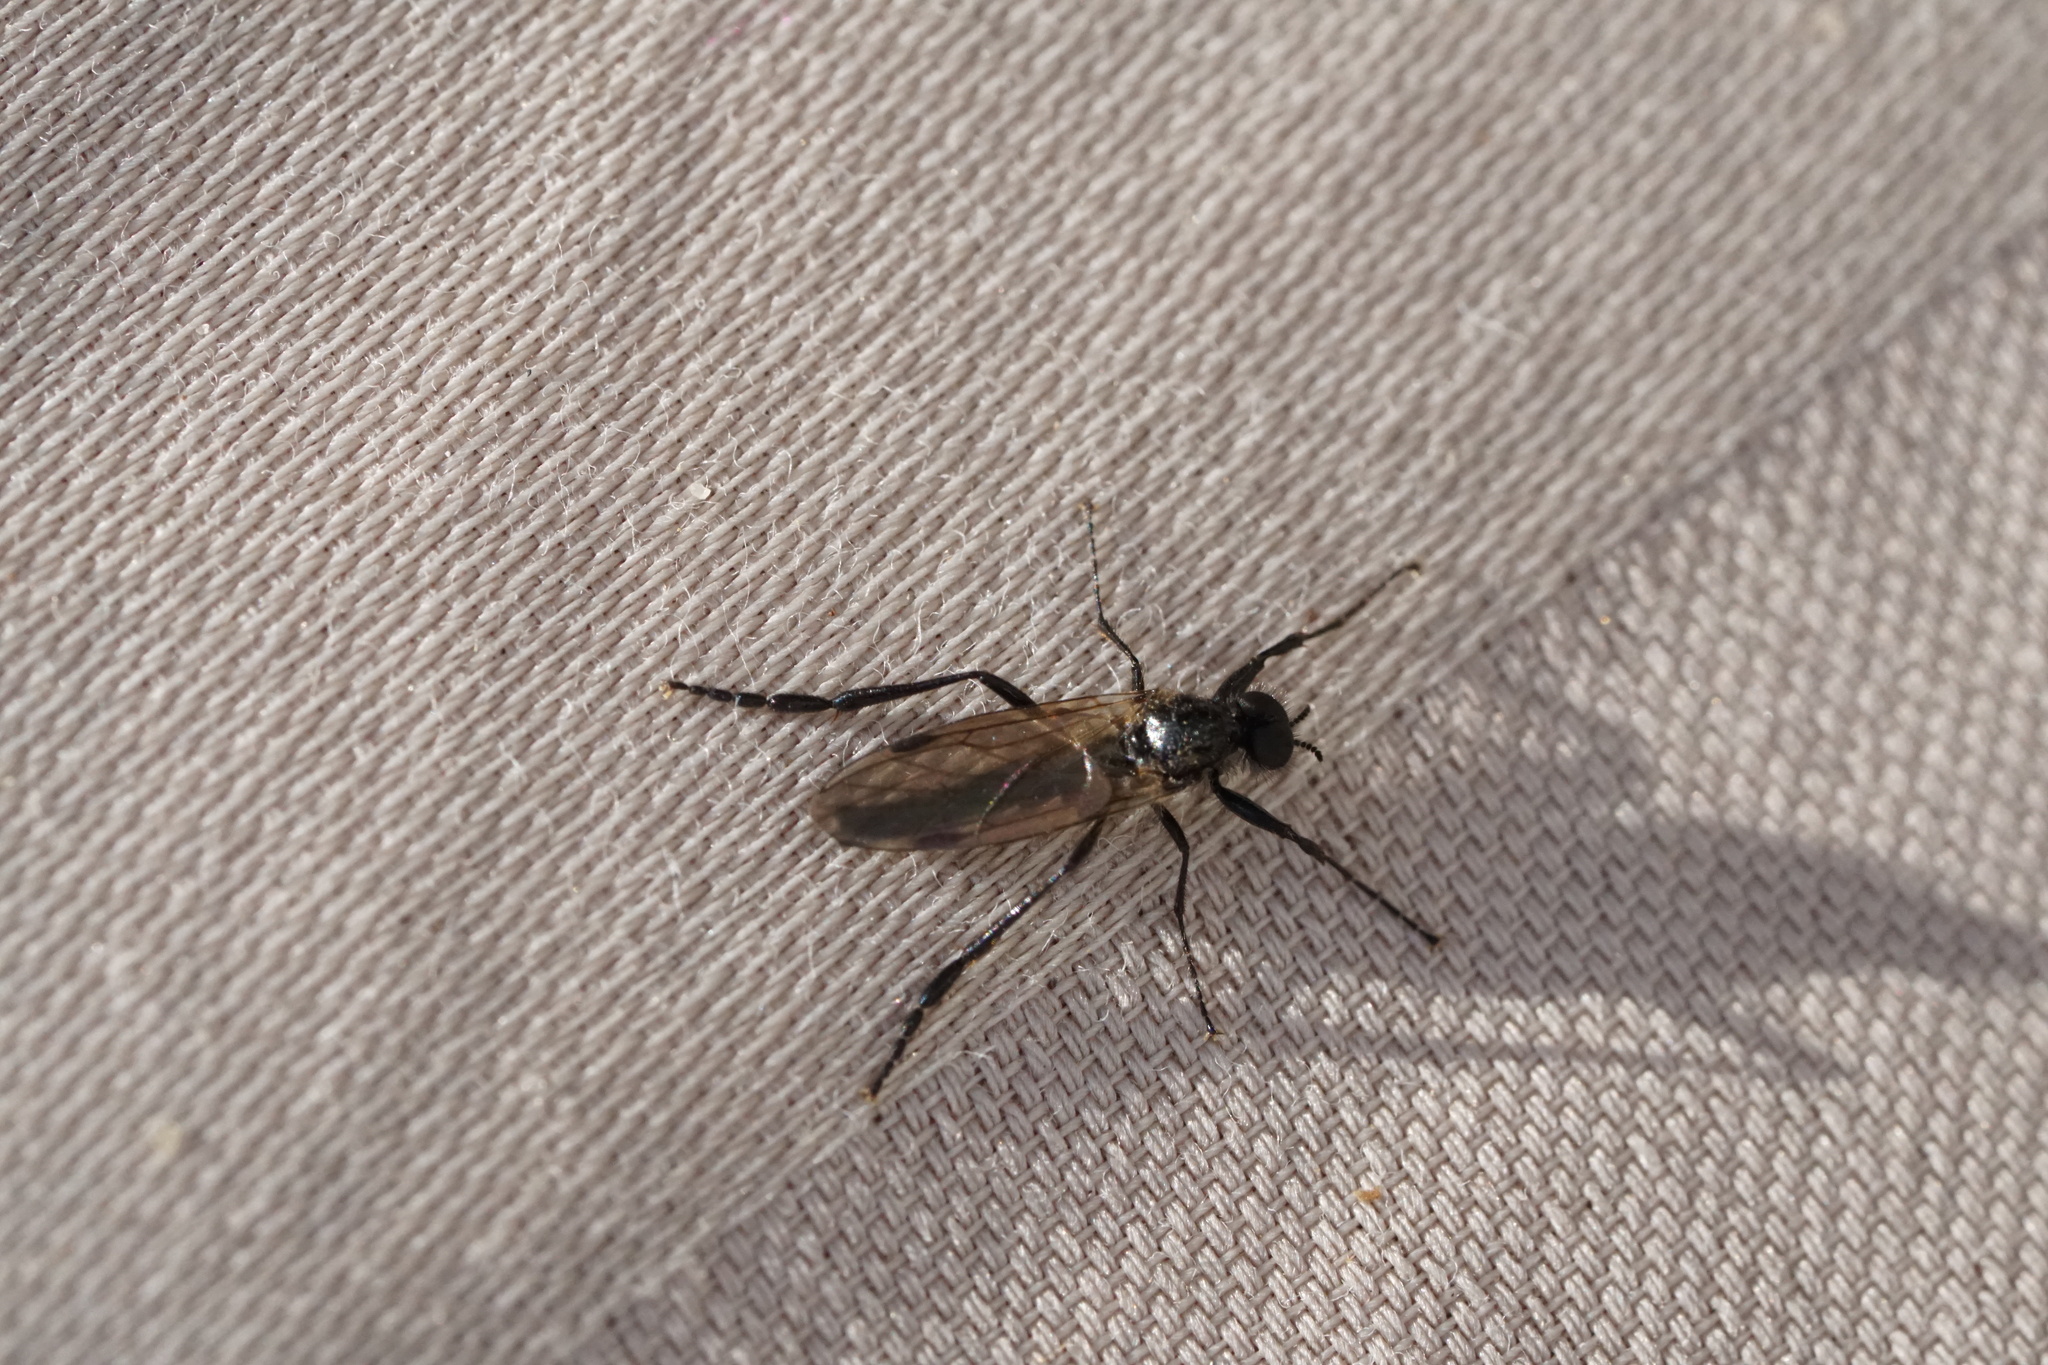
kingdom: Animalia
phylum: Arthropoda
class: Insecta
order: Diptera
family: Bibionidae
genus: Bibio
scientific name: Bibio slossonae
